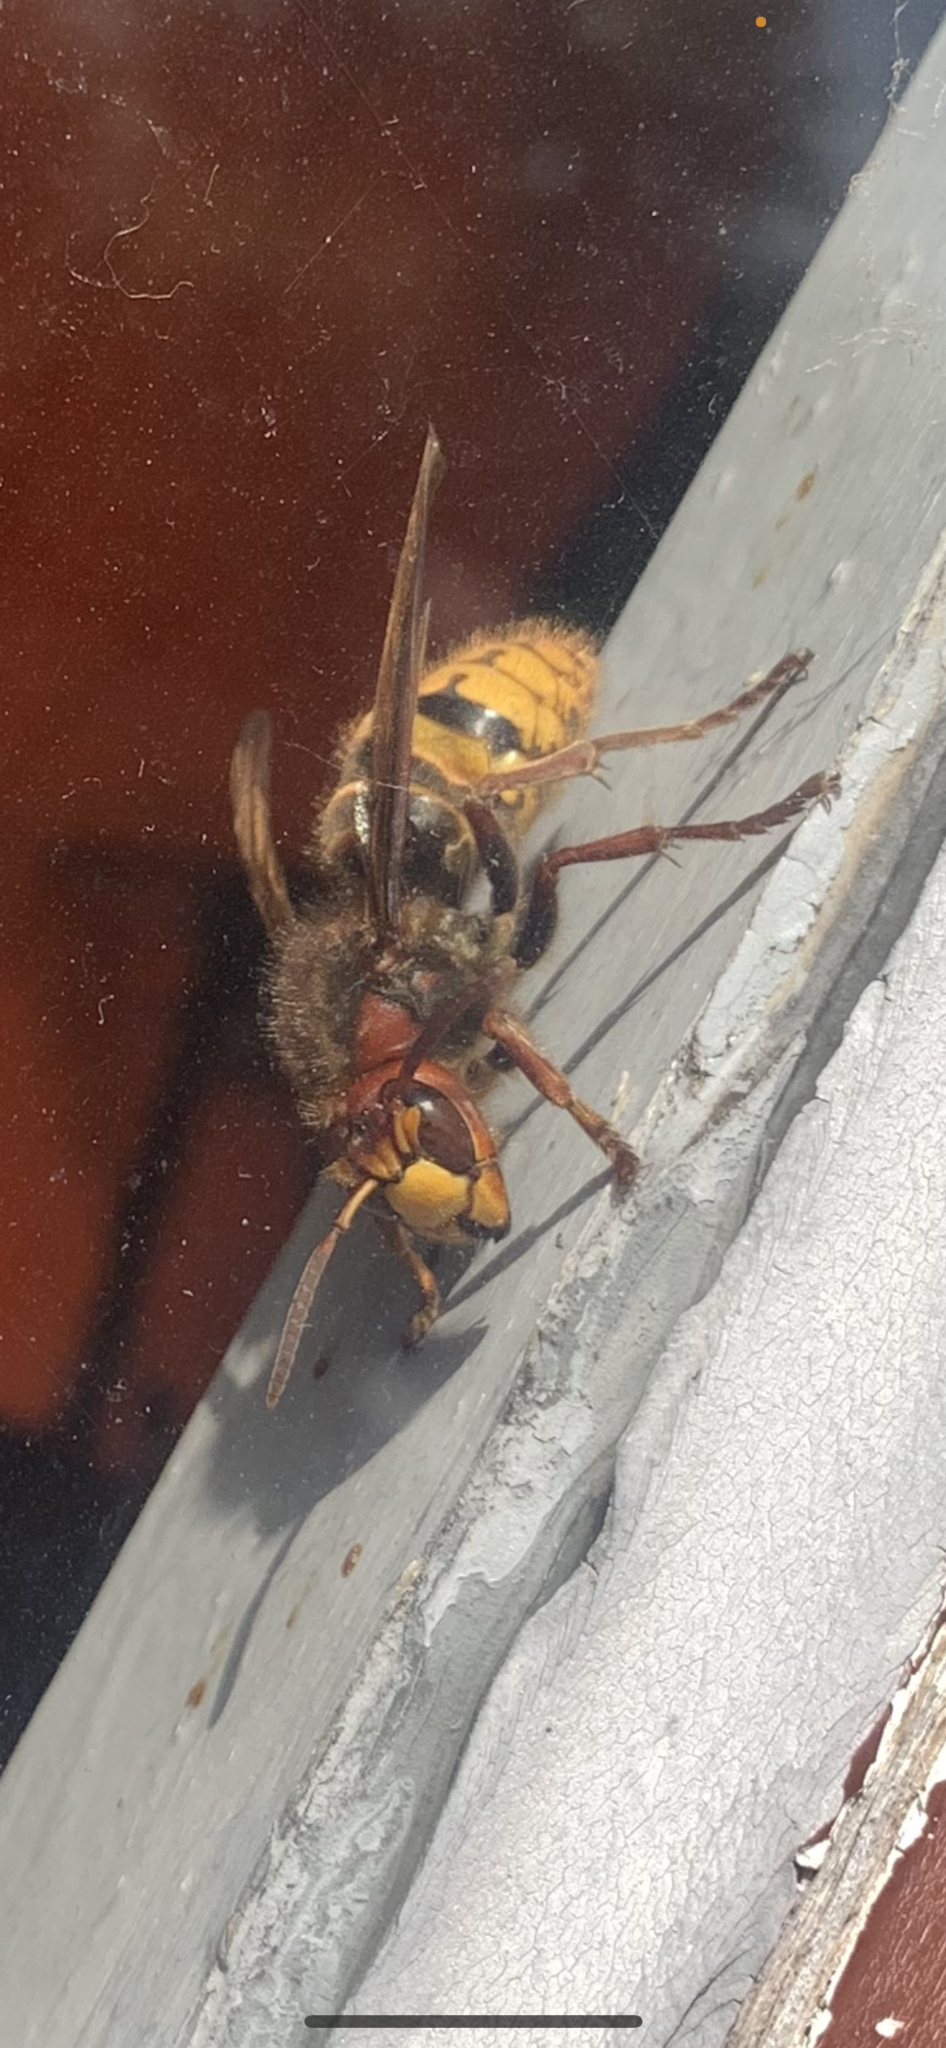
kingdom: Animalia
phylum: Arthropoda
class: Insecta
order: Hymenoptera
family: Vespidae
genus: Vespa
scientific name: Vespa crabro
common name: Hornet
